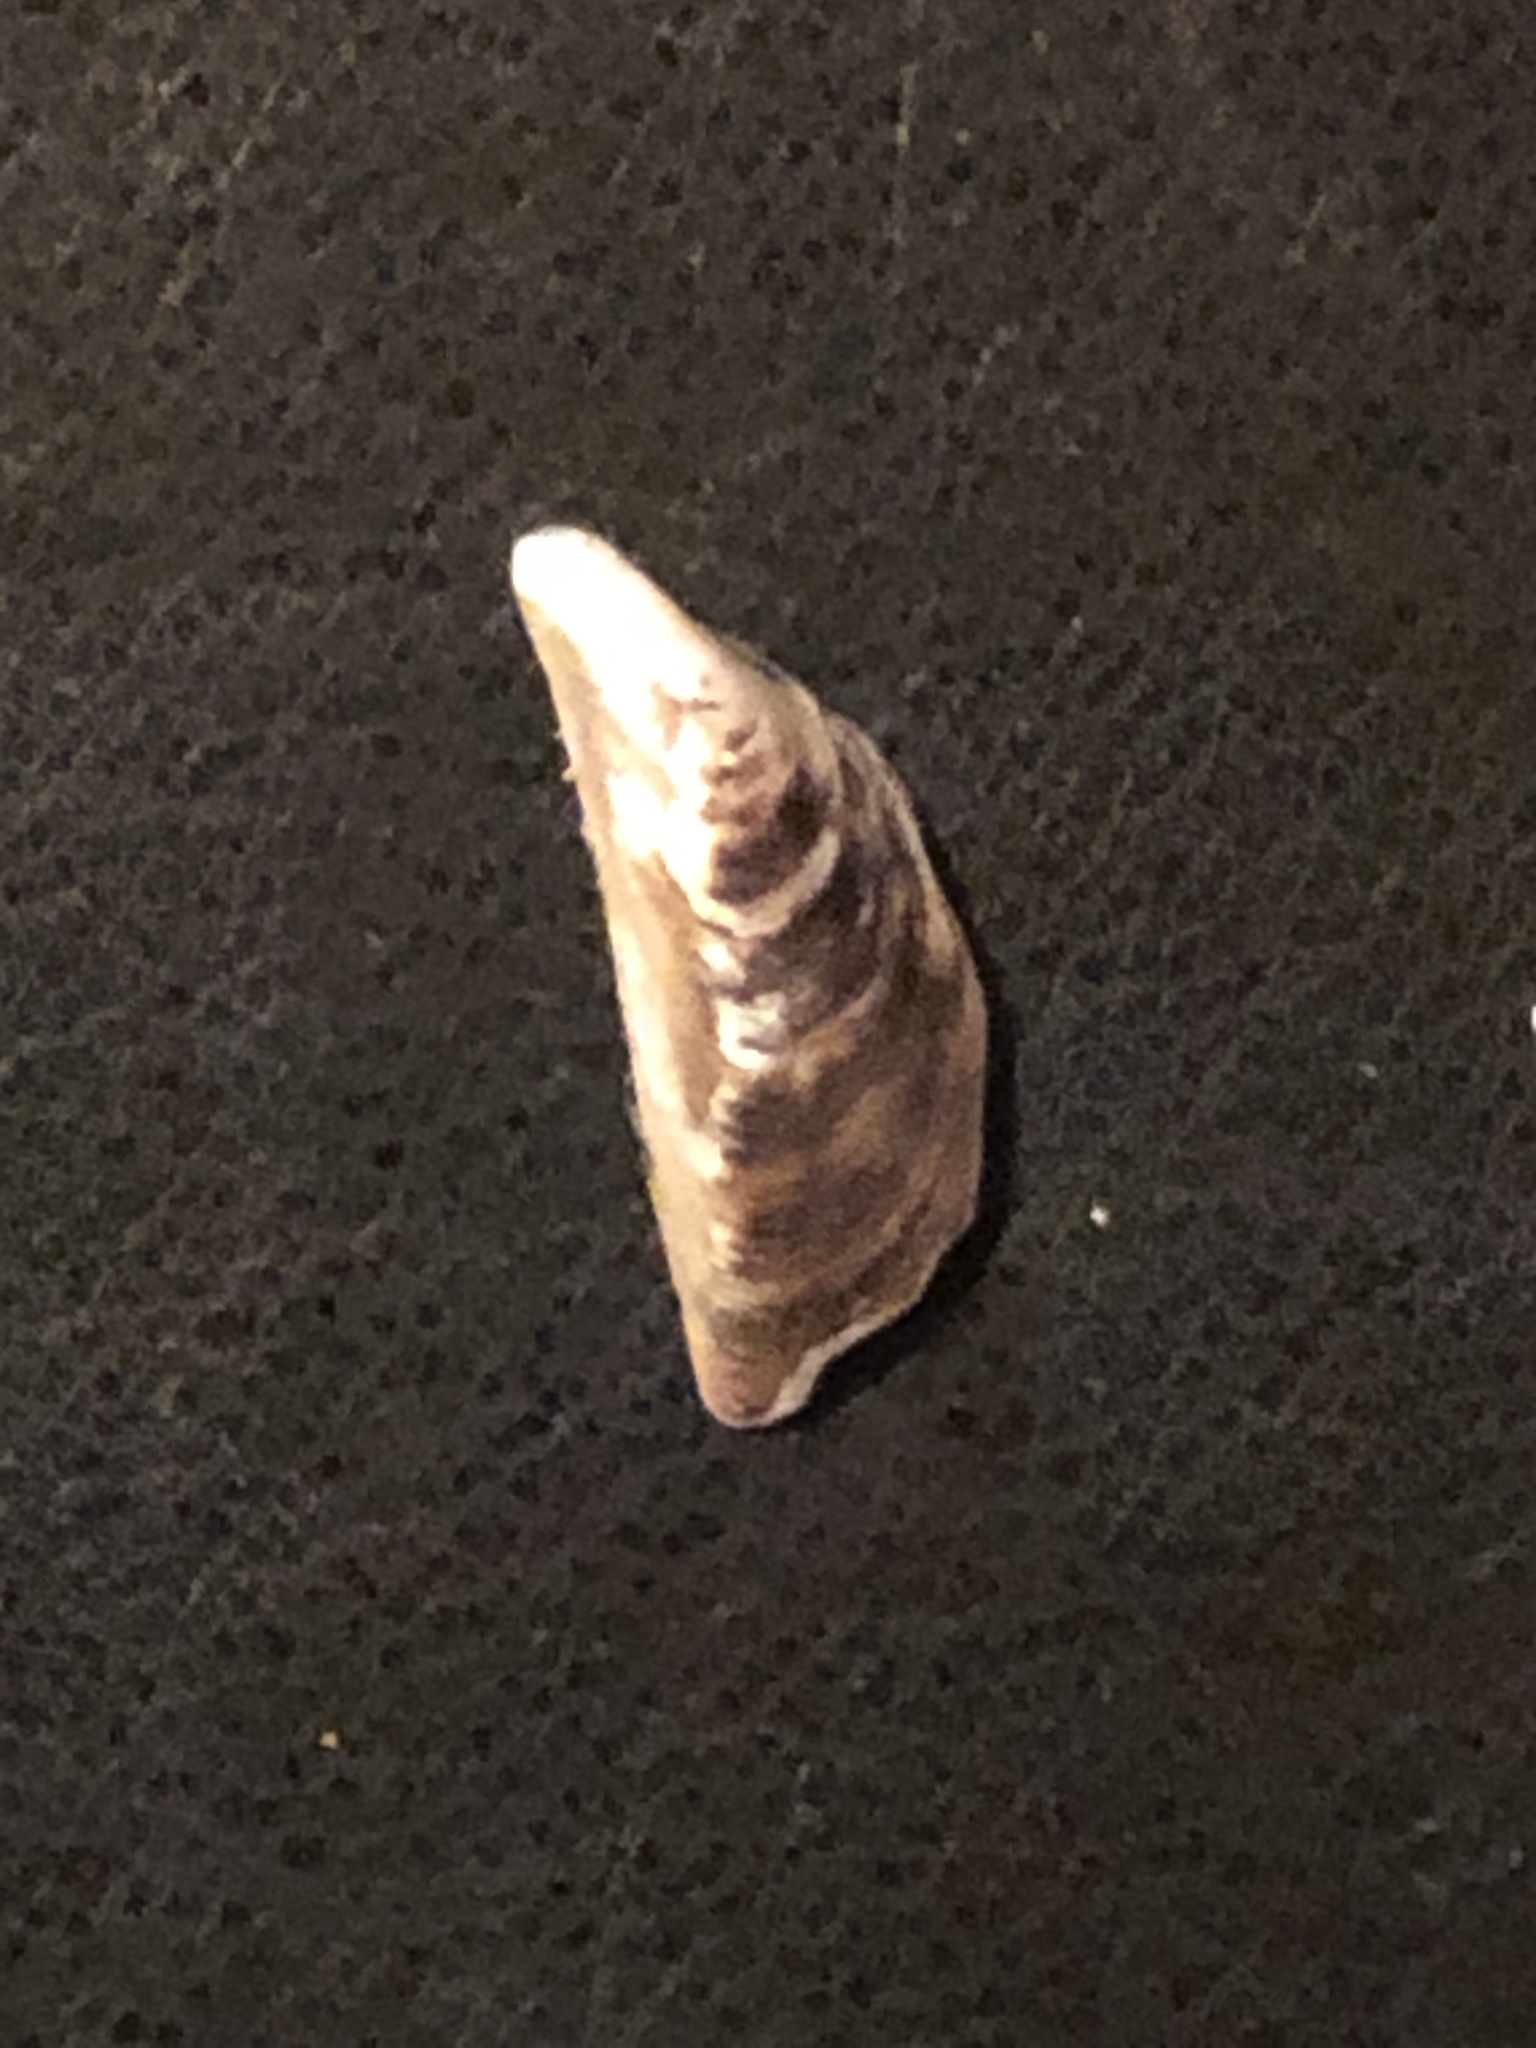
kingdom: Animalia
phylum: Mollusca
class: Bivalvia
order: Myida
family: Dreissenidae
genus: Dreissena
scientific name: Dreissena polymorpha
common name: Zebra mussel
